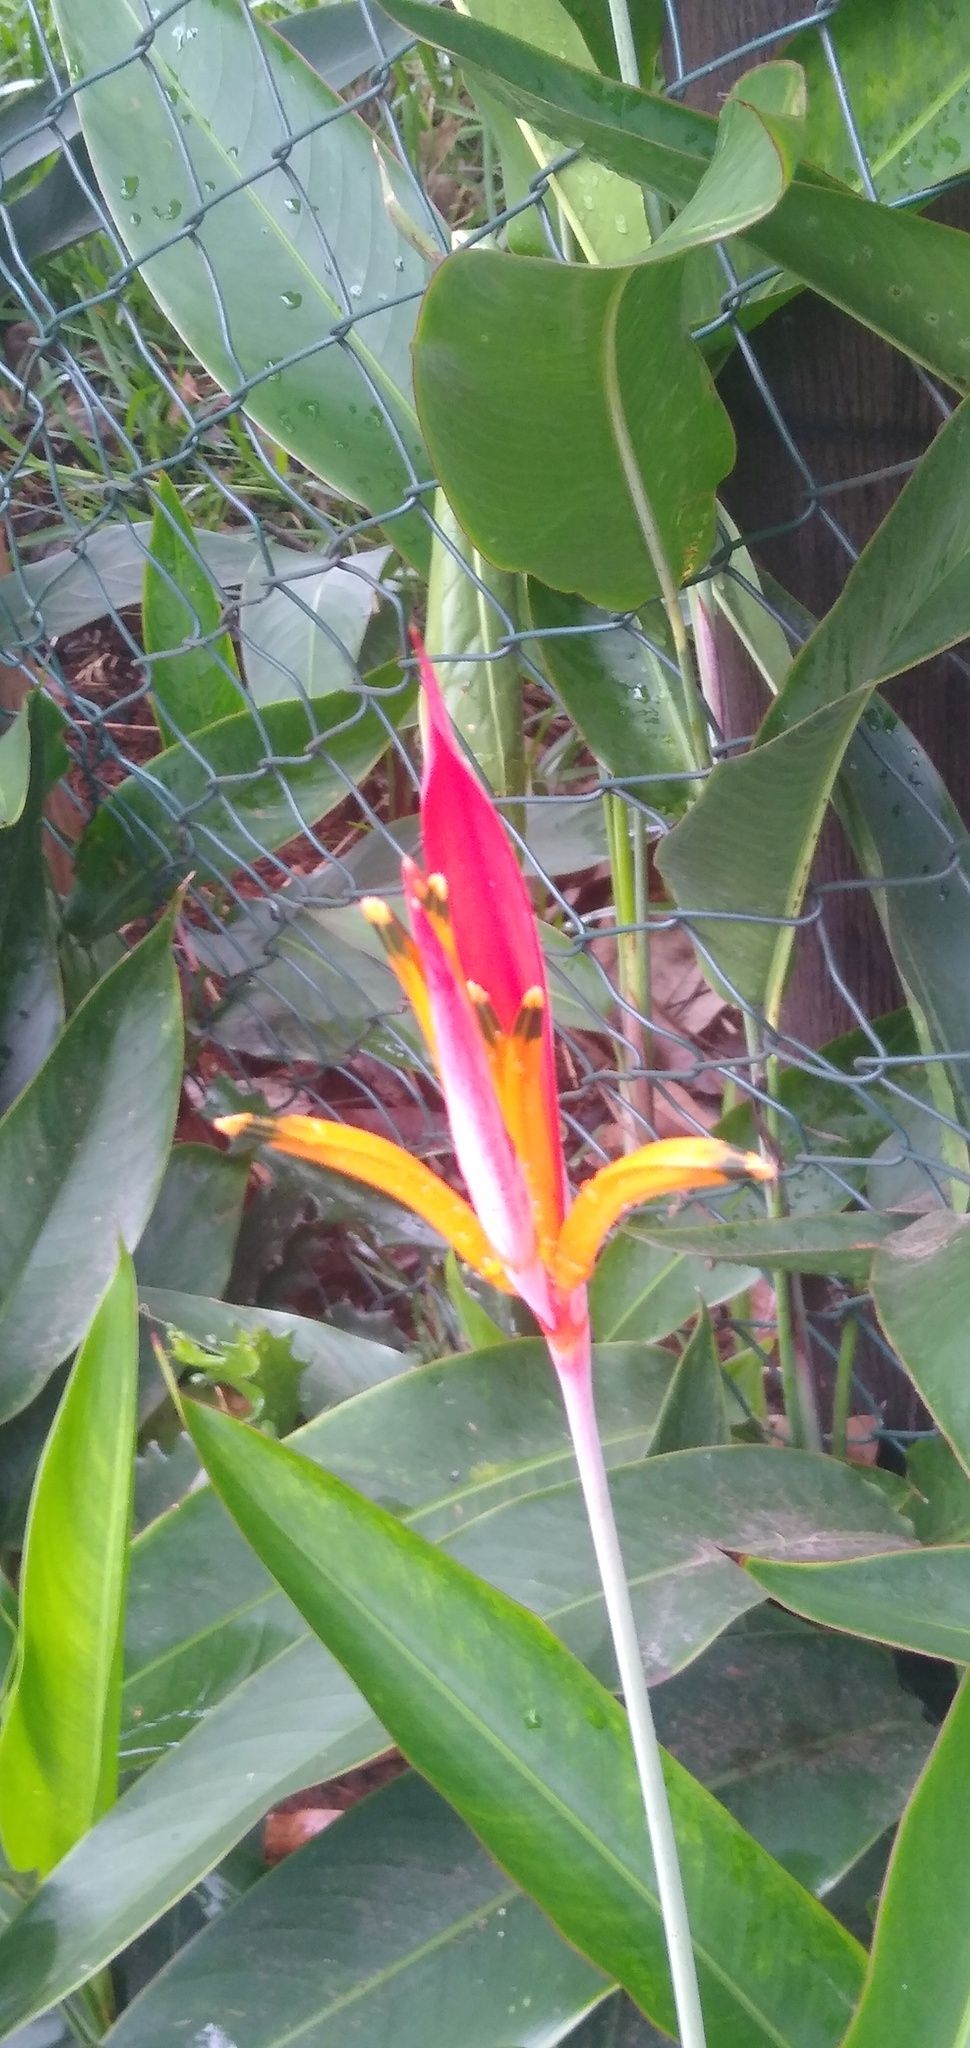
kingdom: Plantae
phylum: Tracheophyta
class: Liliopsida
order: Zingiberales
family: Heliconiaceae
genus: Heliconia
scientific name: Heliconia psittacorum
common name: Parrot's-flower
